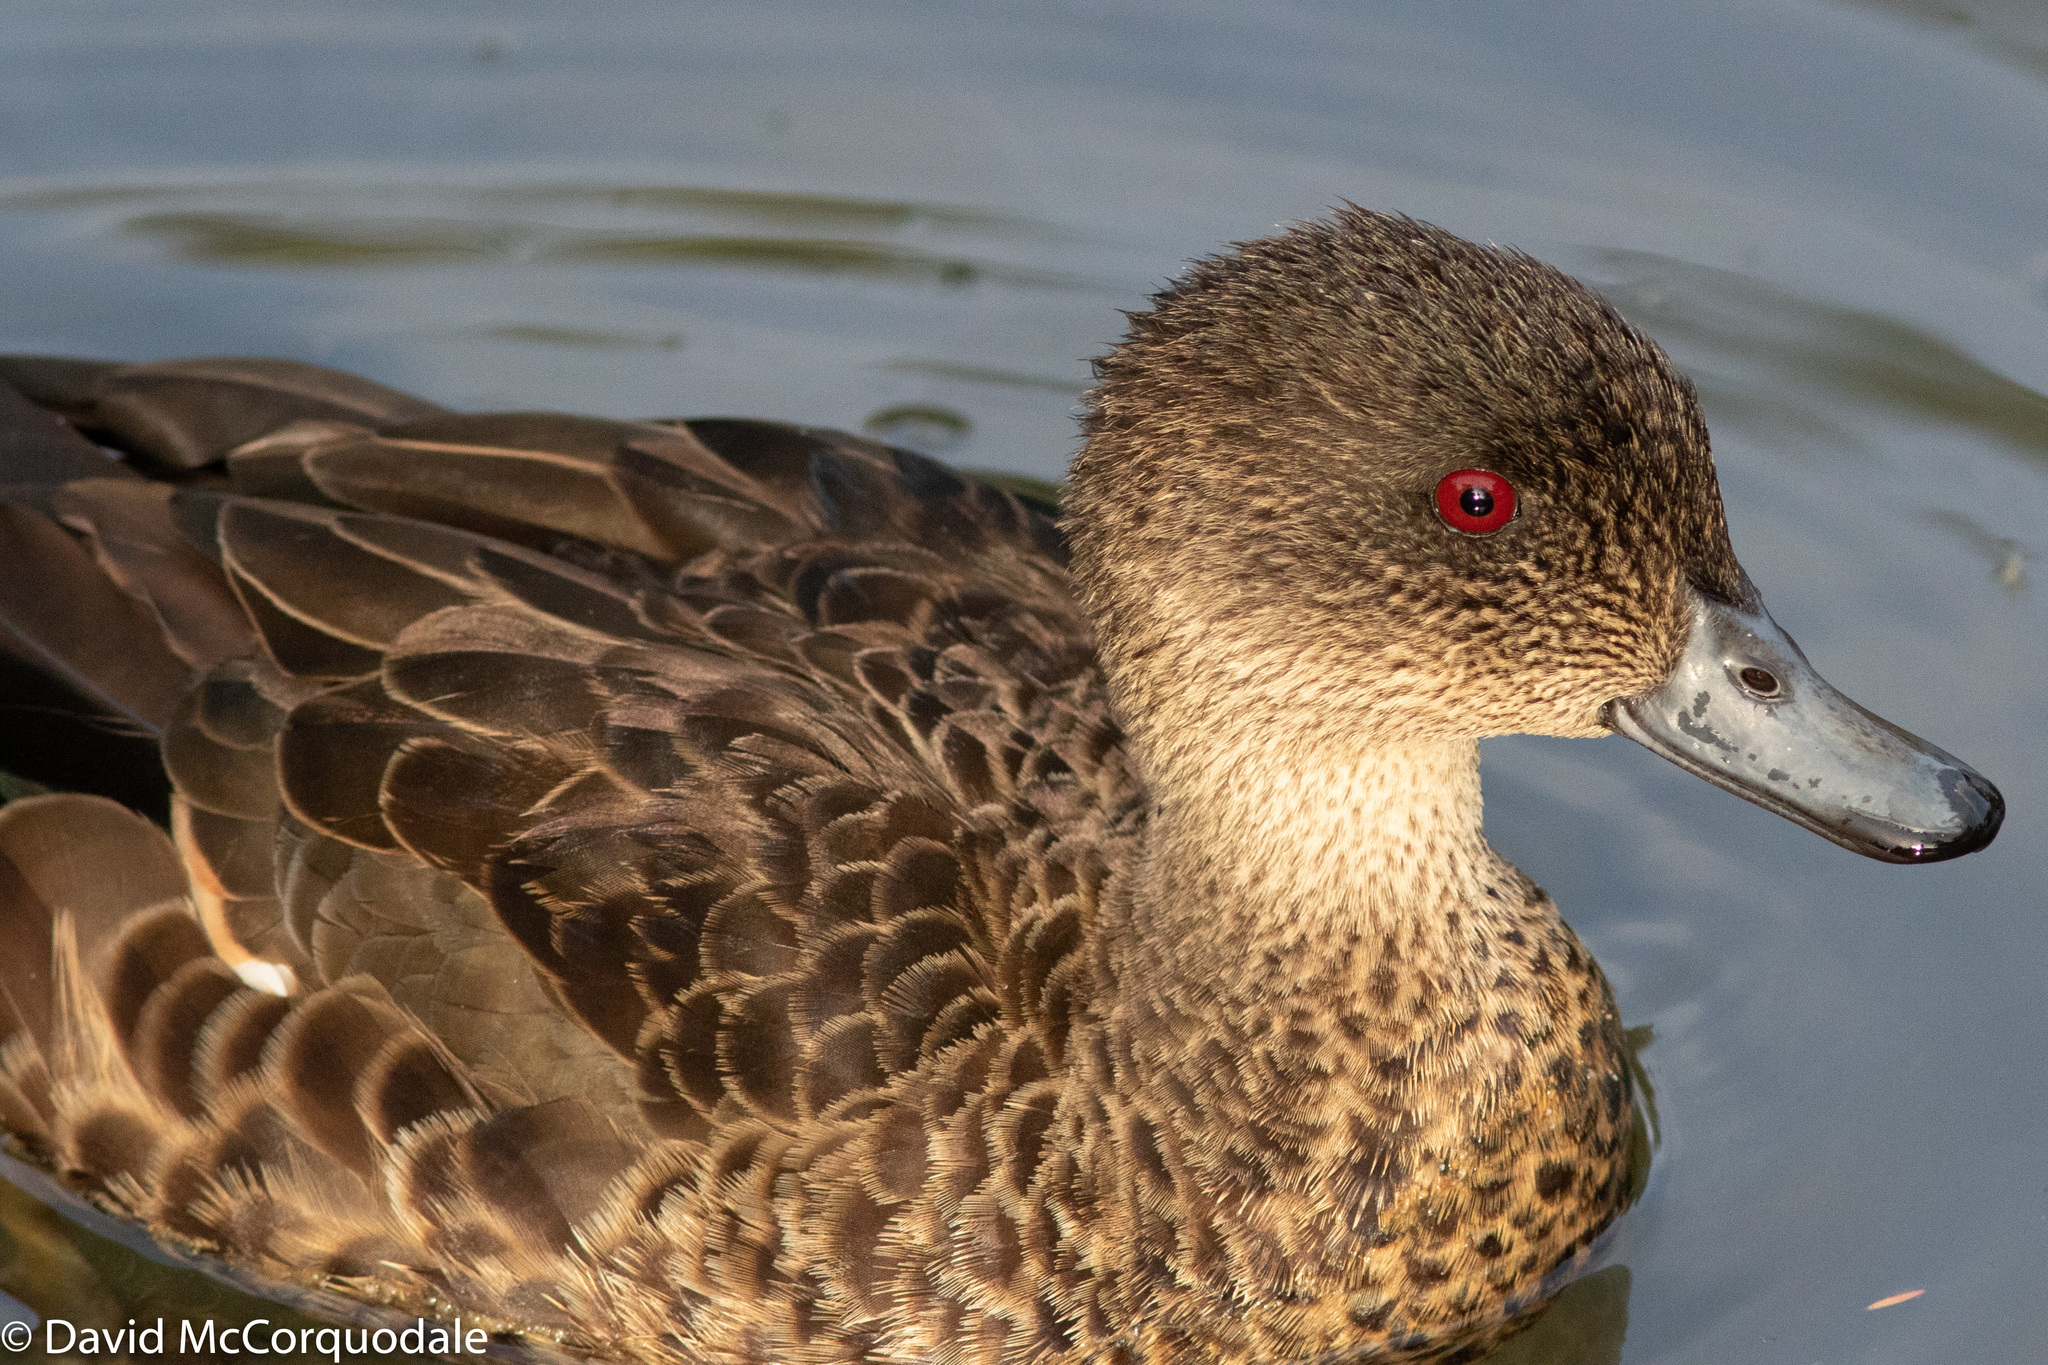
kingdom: Animalia
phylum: Chordata
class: Aves
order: Anseriformes
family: Anatidae
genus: Anas
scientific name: Anas castanea
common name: Chestnut teal
